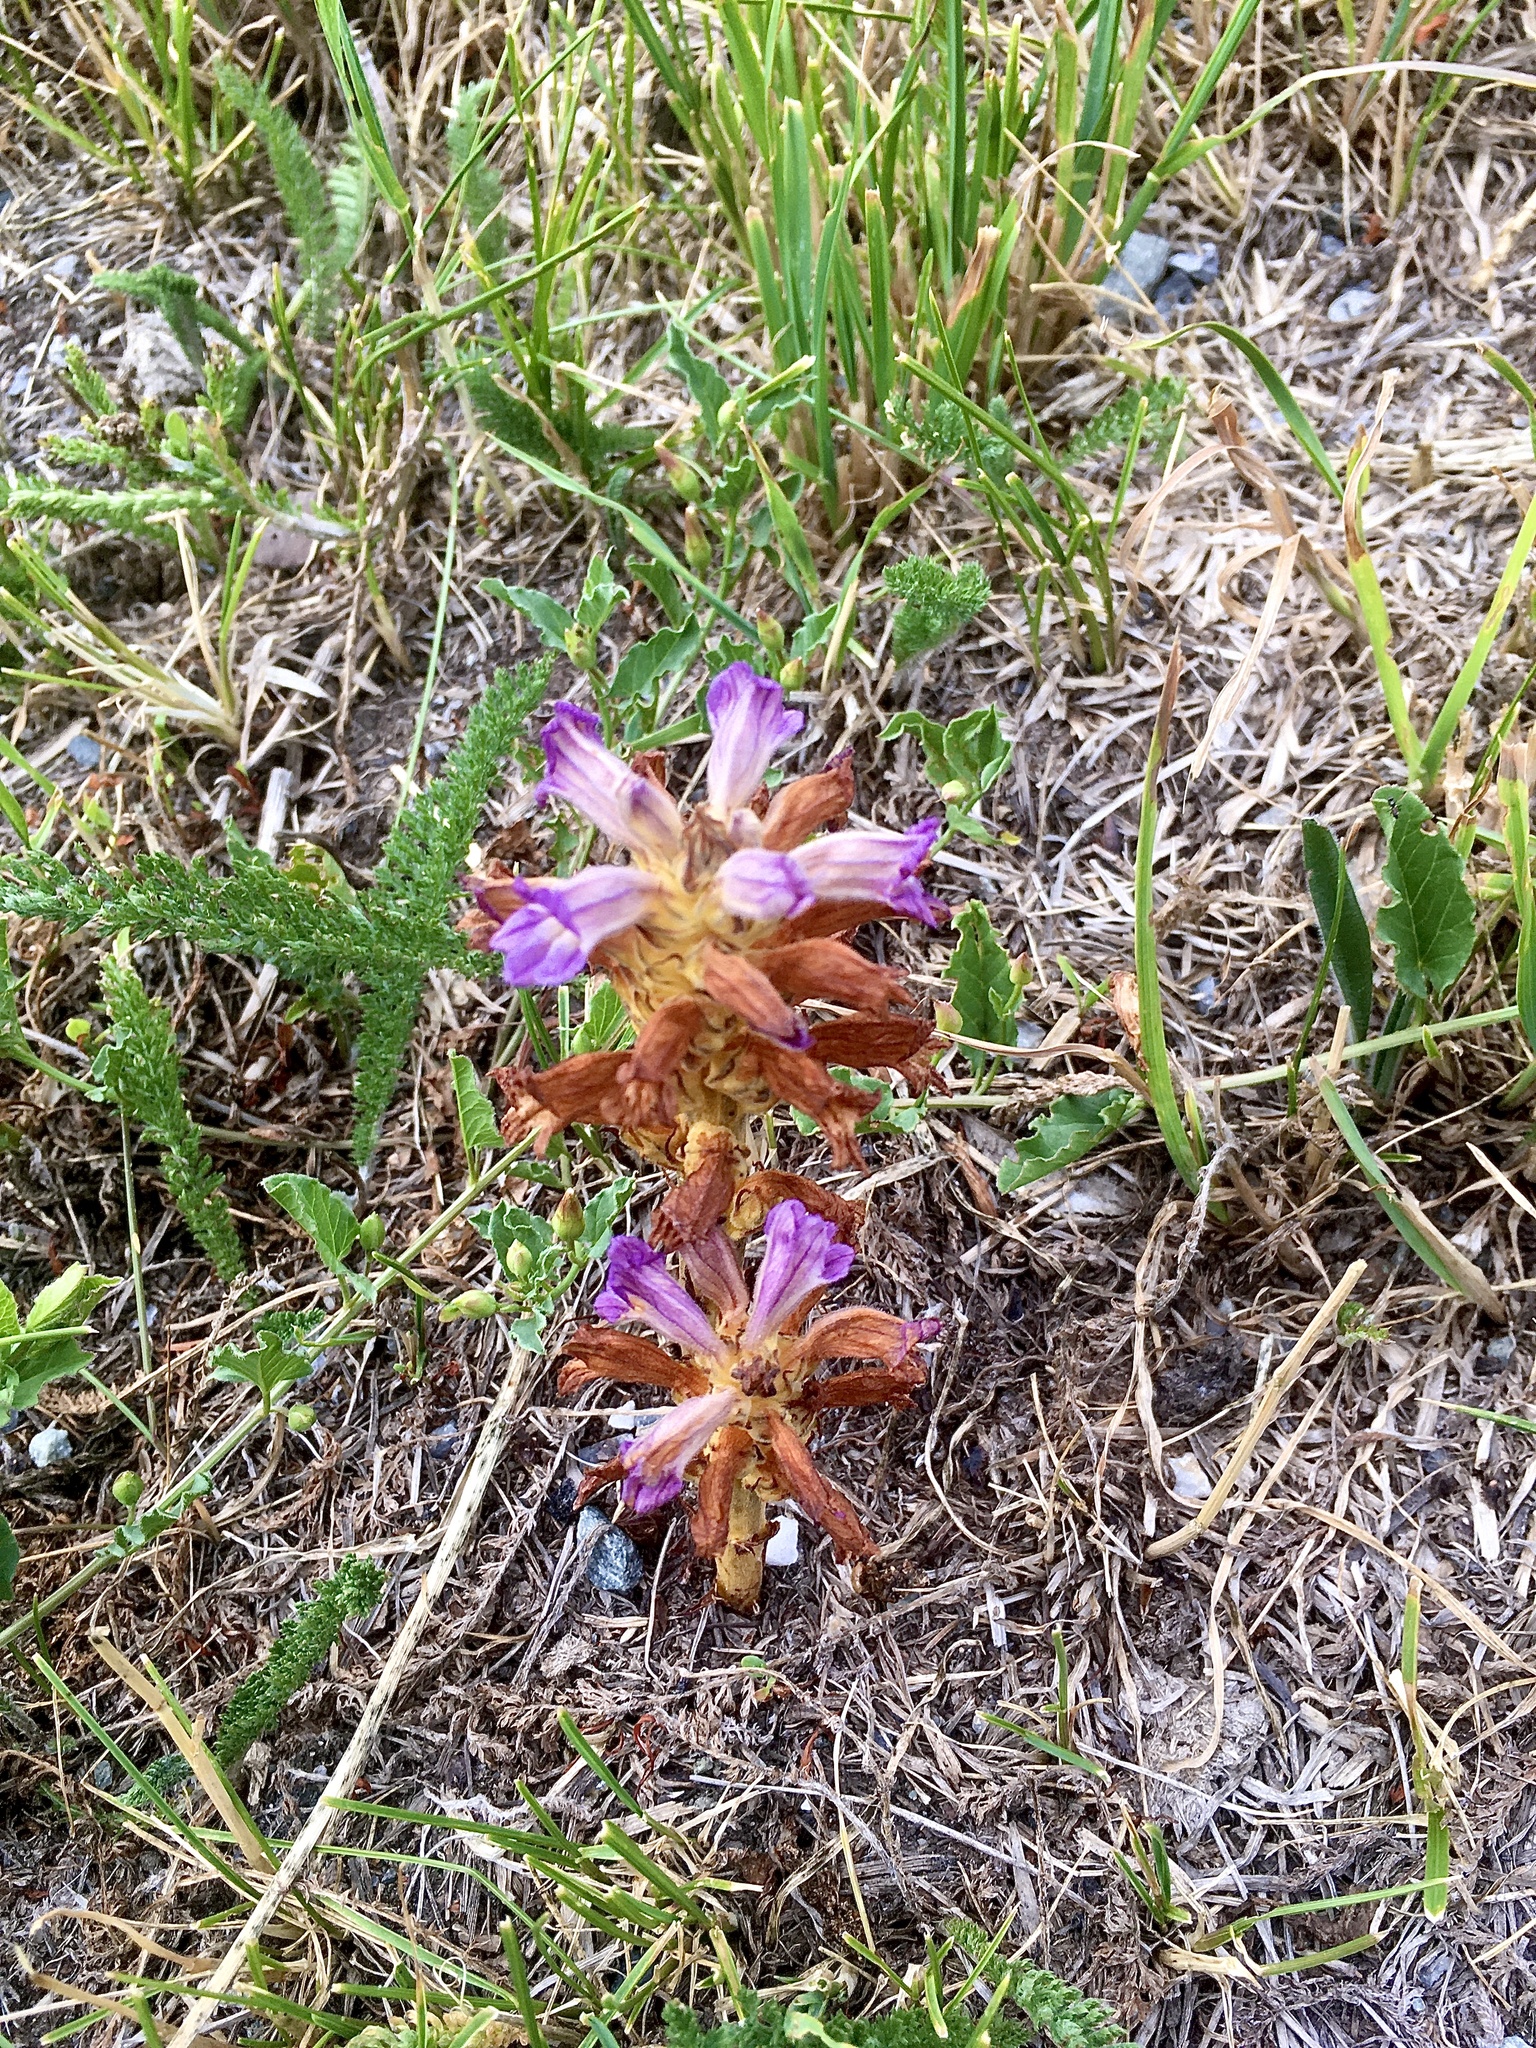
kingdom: Plantae
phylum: Tracheophyta
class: Magnoliopsida
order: Lamiales
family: Orobanchaceae
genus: Phelipanche
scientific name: Phelipanche purpurea
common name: Purple broomrape
